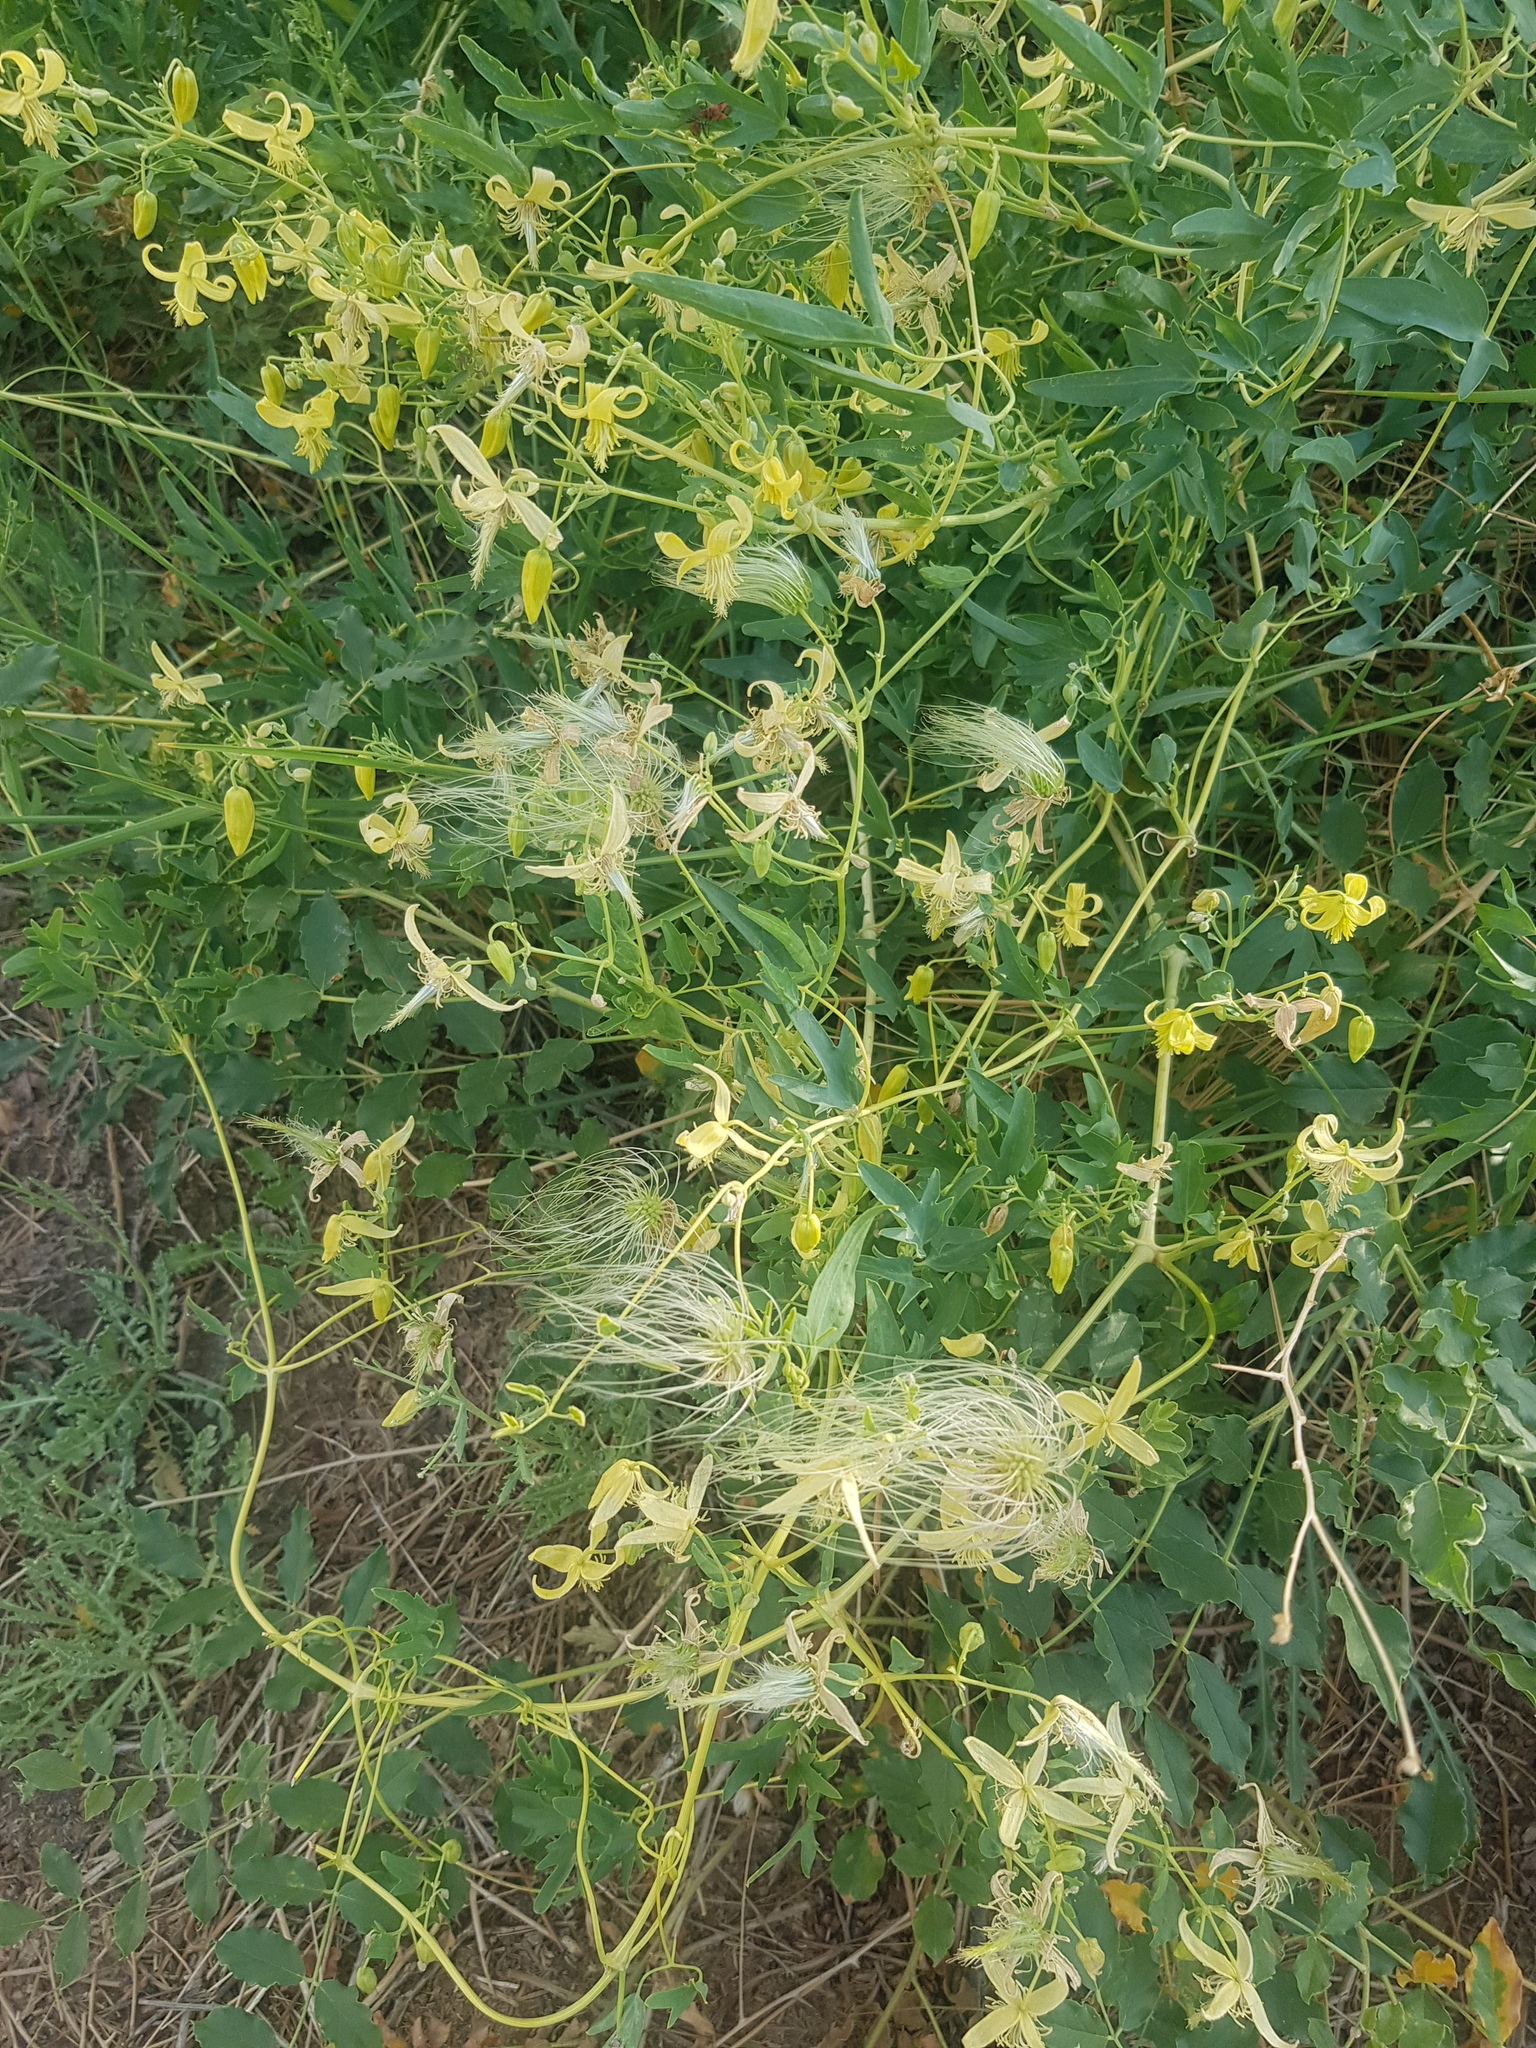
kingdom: Plantae
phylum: Tracheophyta
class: Magnoliopsida
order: Ranunculales
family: Ranunculaceae
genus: Clematis
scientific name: Clematis orientalis
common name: Oriental virgin's-bower
